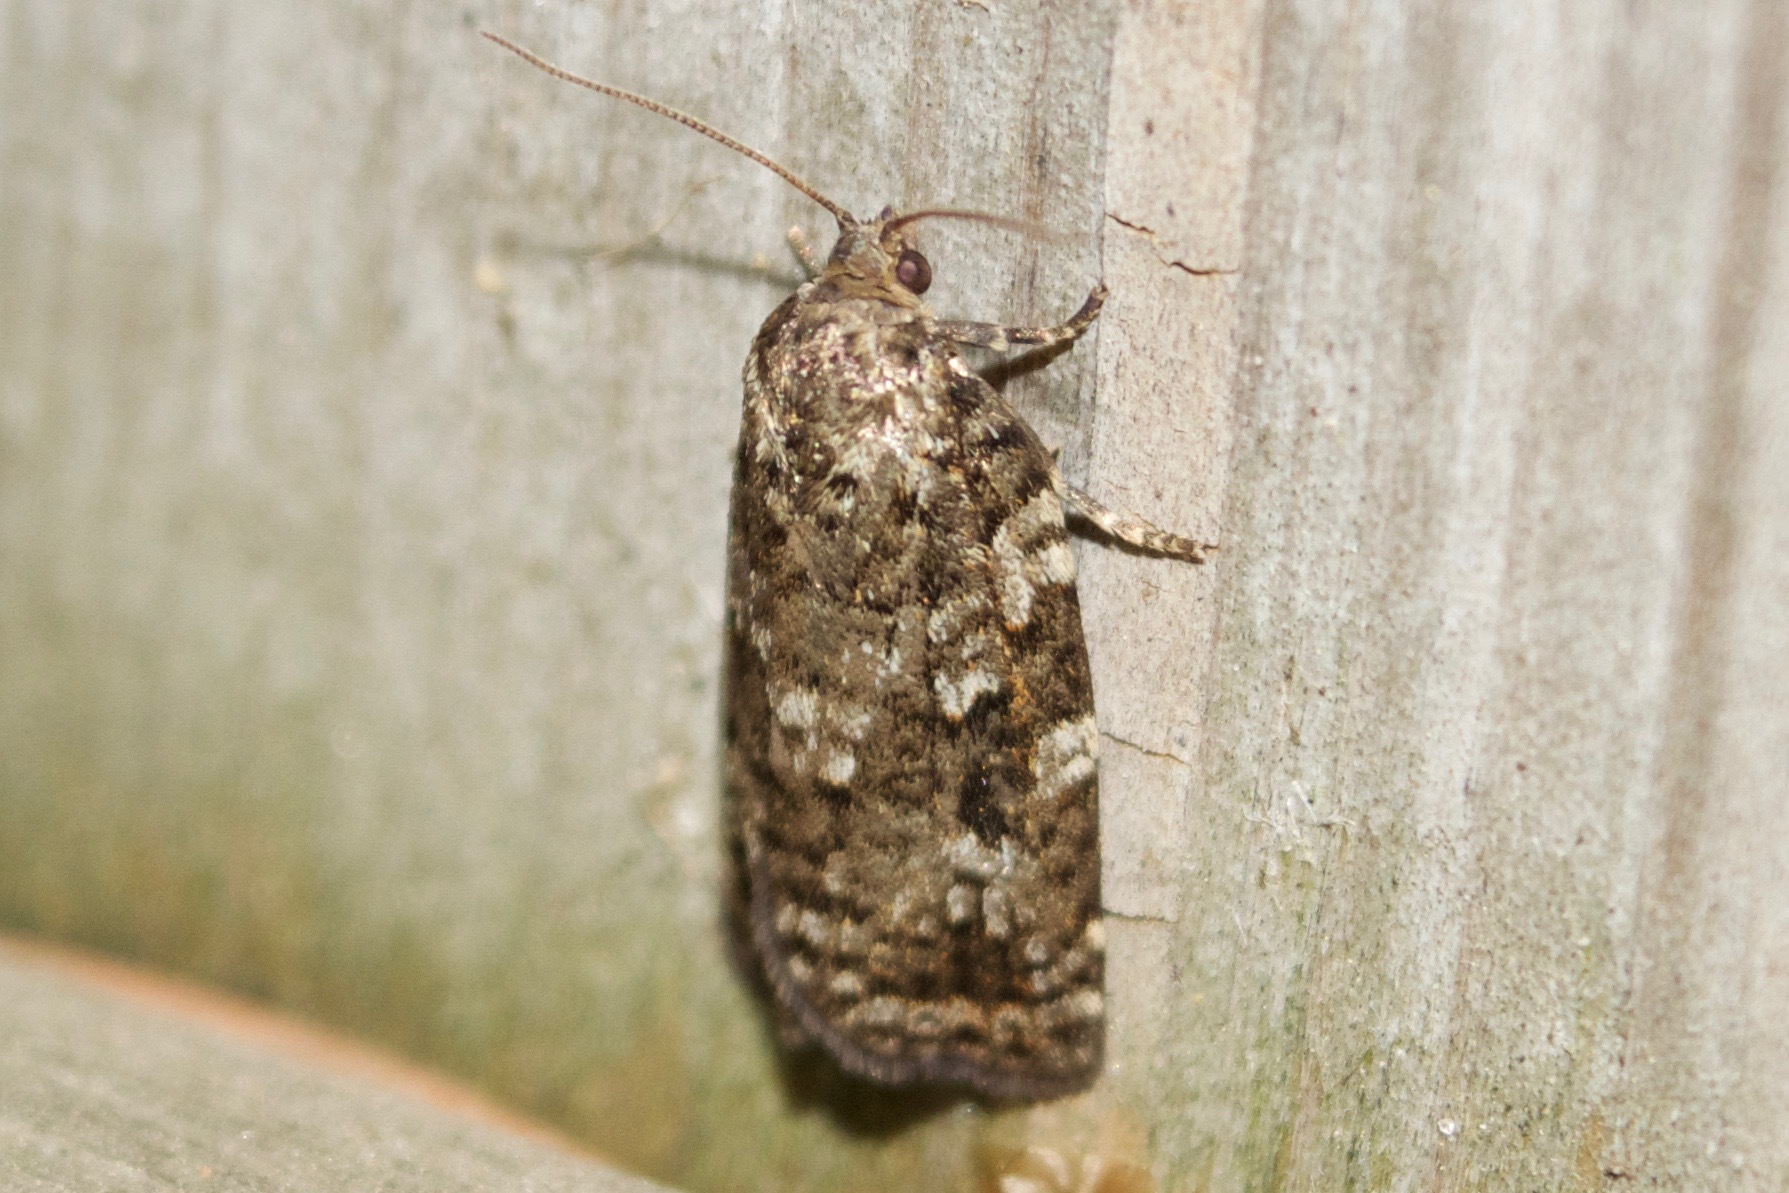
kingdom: Animalia
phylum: Arthropoda
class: Insecta
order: Lepidoptera
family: Tortricidae
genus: Choristoneura
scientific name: Choristoneura fumiferana
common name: Spruce budworm
